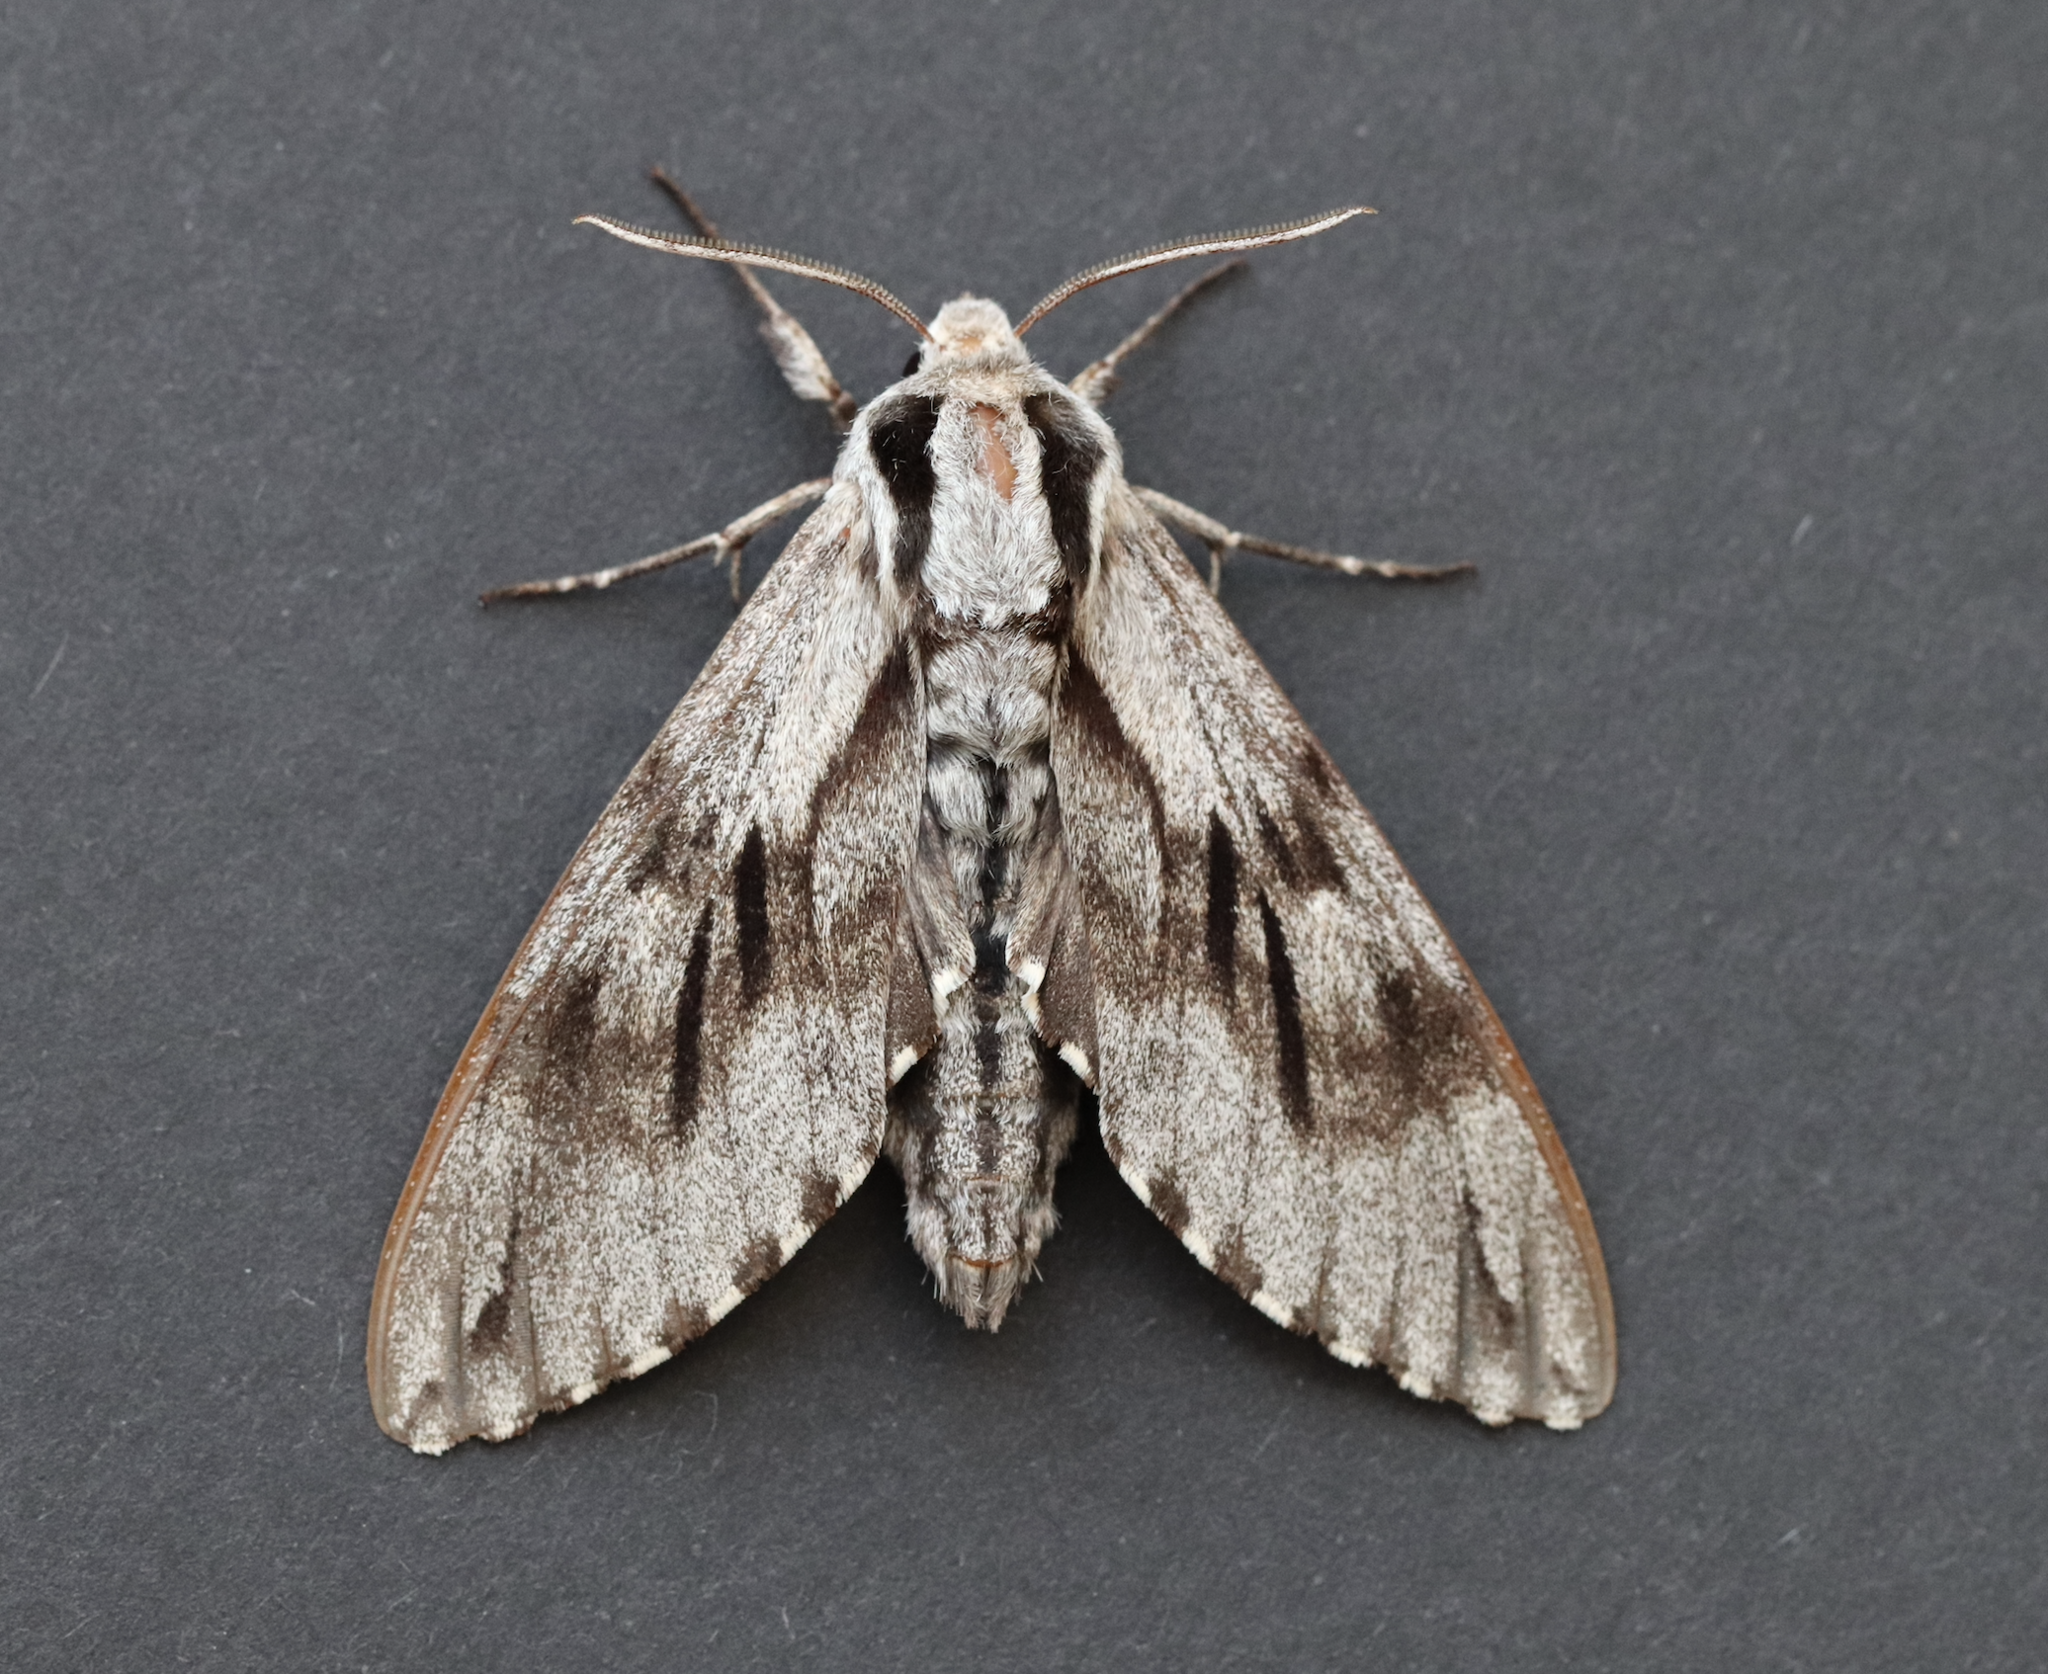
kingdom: Animalia
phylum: Arthropoda
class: Insecta
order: Lepidoptera
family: Sphingidae
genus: Sphinx
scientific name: Sphinx pinastri
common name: Pine hawk-moth
